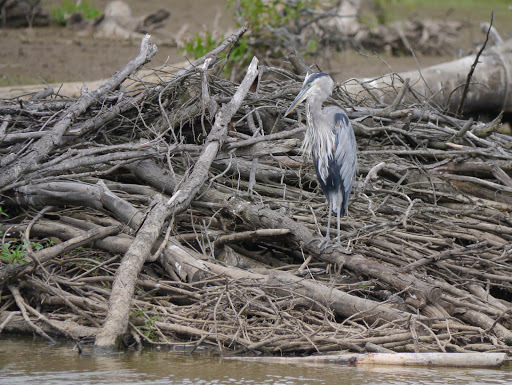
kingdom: Animalia
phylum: Chordata
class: Aves
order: Pelecaniformes
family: Ardeidae
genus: Ardea
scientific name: Ardea herodias
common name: Great blue heron
